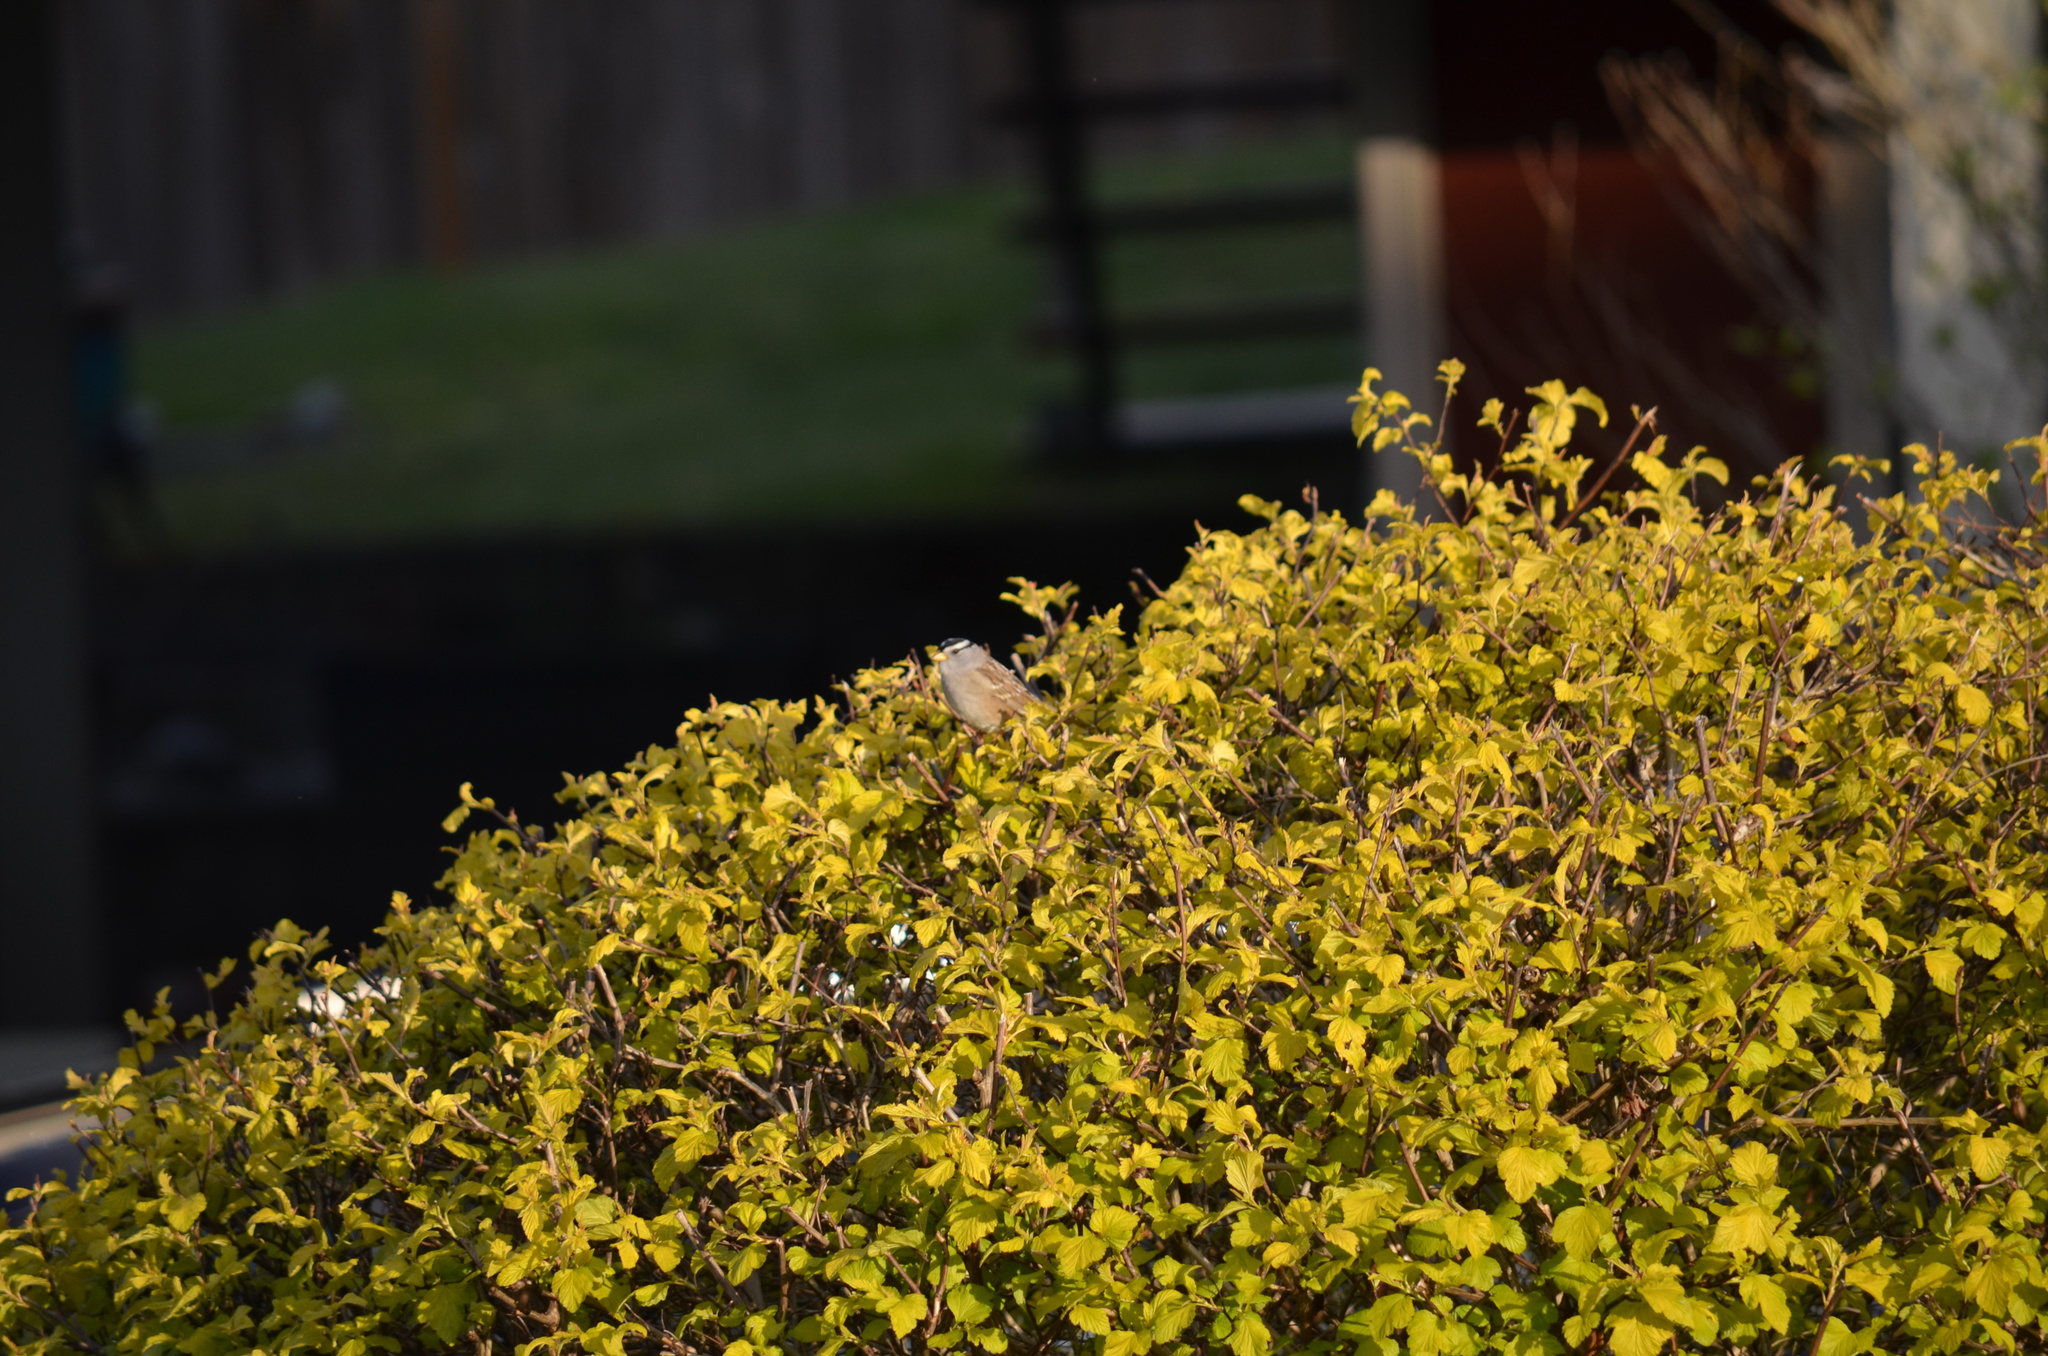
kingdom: Animalia
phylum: Chordata
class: Aves
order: Passeriformes
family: Passerellidae
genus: Zonotrichia
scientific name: Zonotrichia leucophrys
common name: White-crowned sparrow
